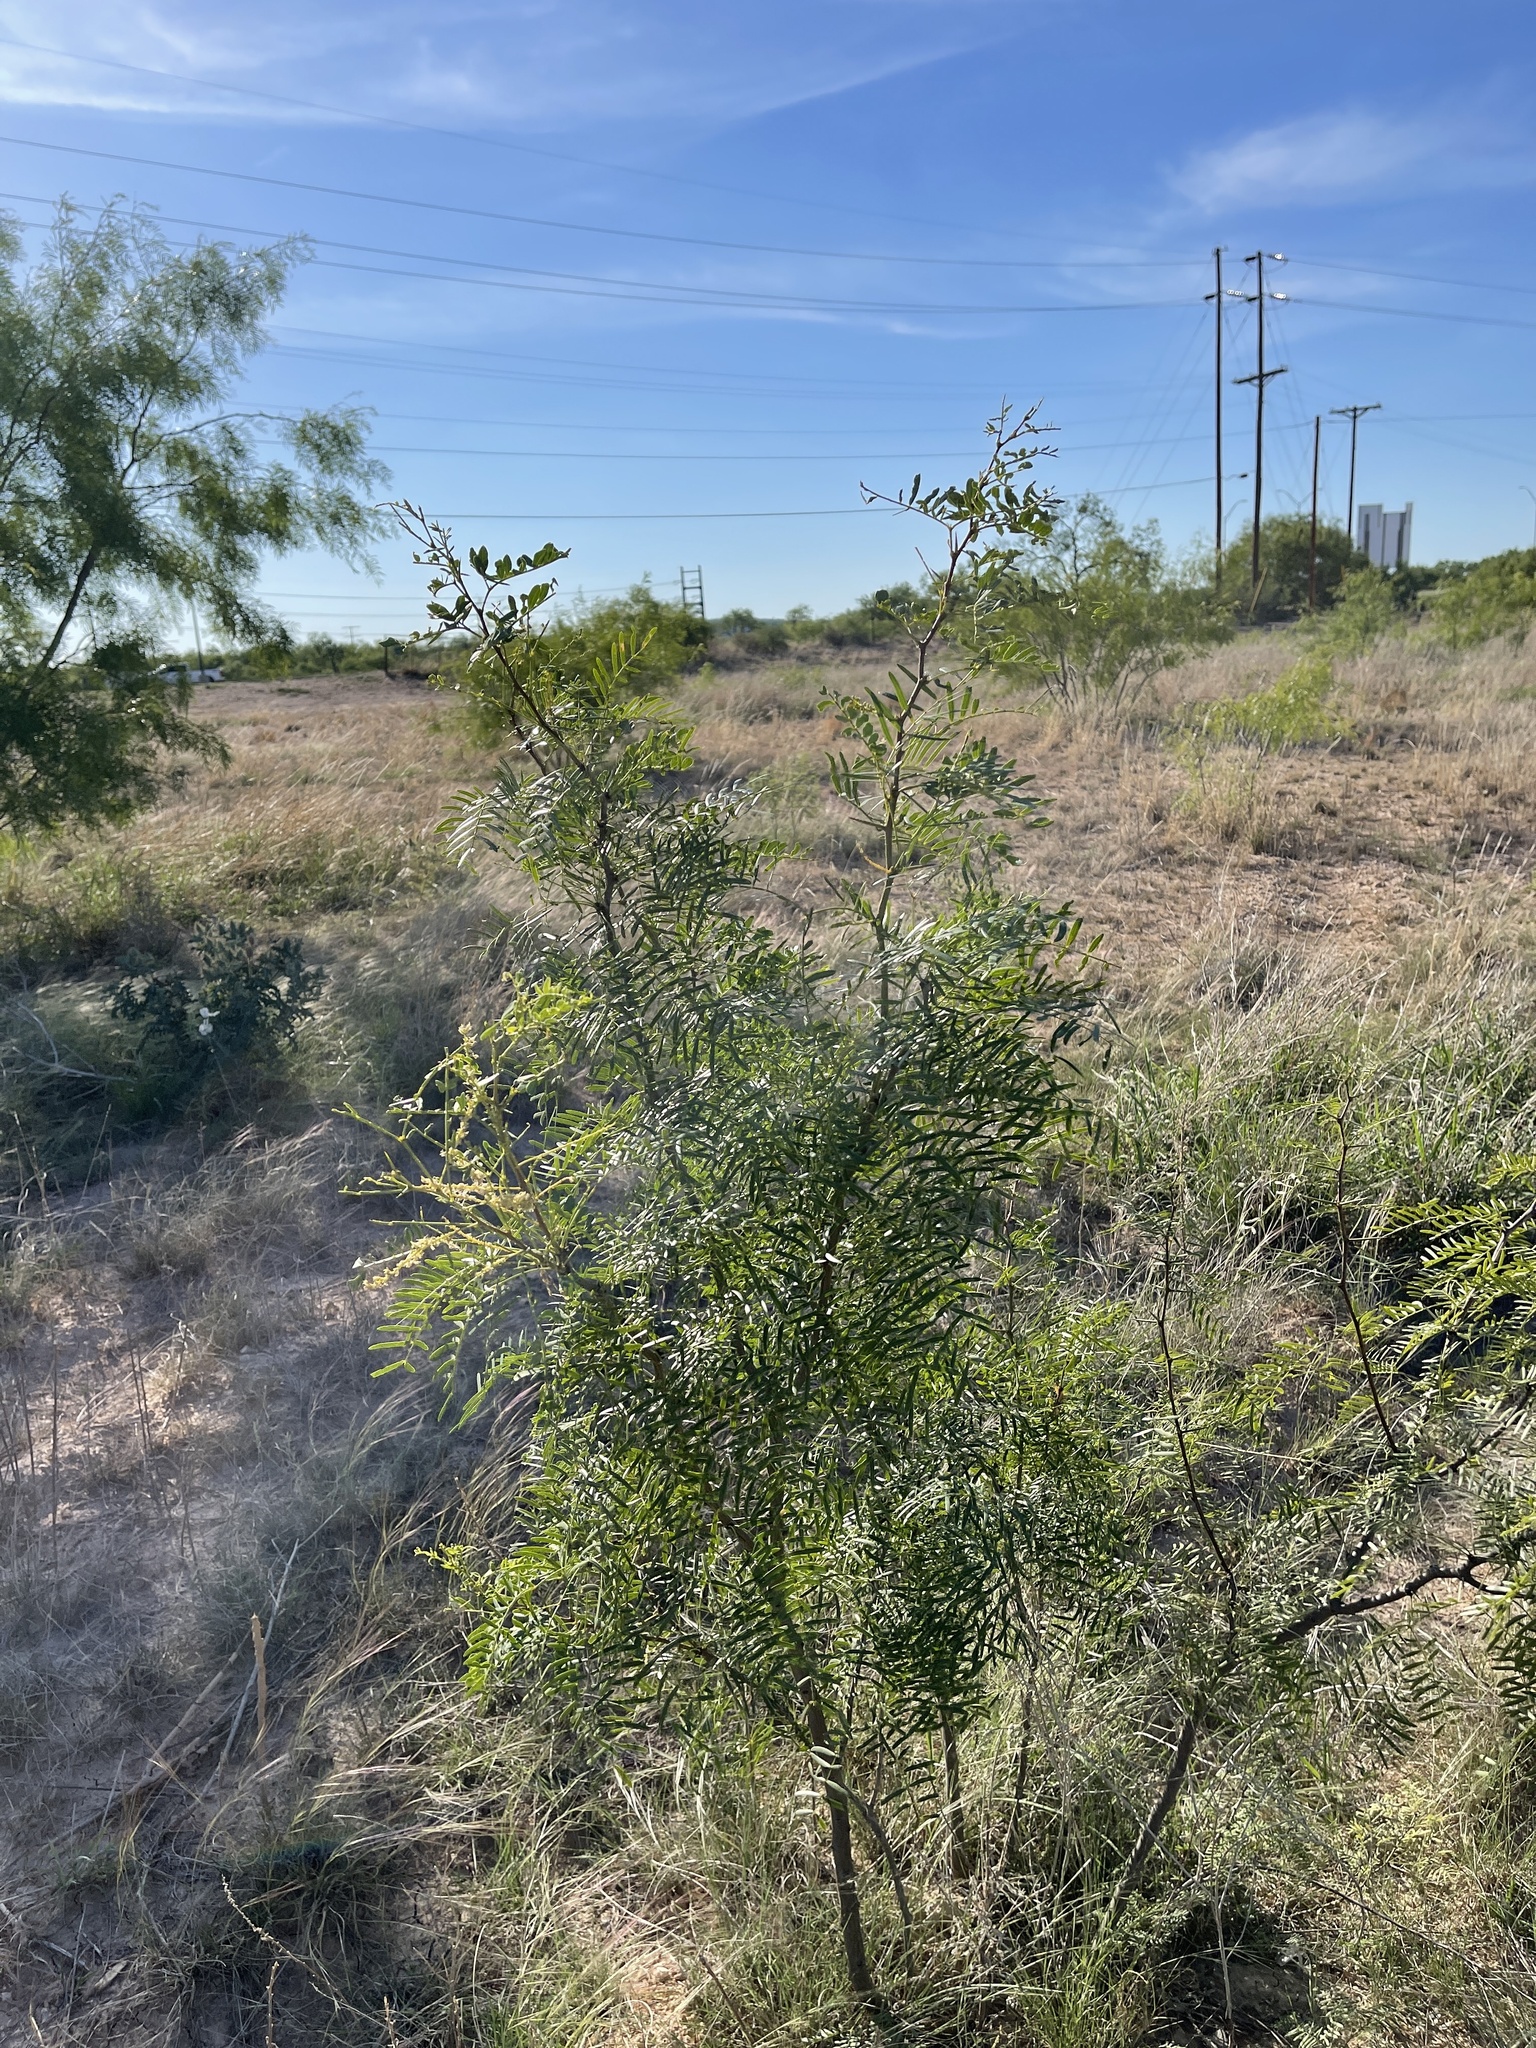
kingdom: Plantae
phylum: Tracheophyta
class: Magnoliopsida
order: Fabales
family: Fabaceae
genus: Prosopis
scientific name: Prosopis glandulosa
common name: Honey mesquite
